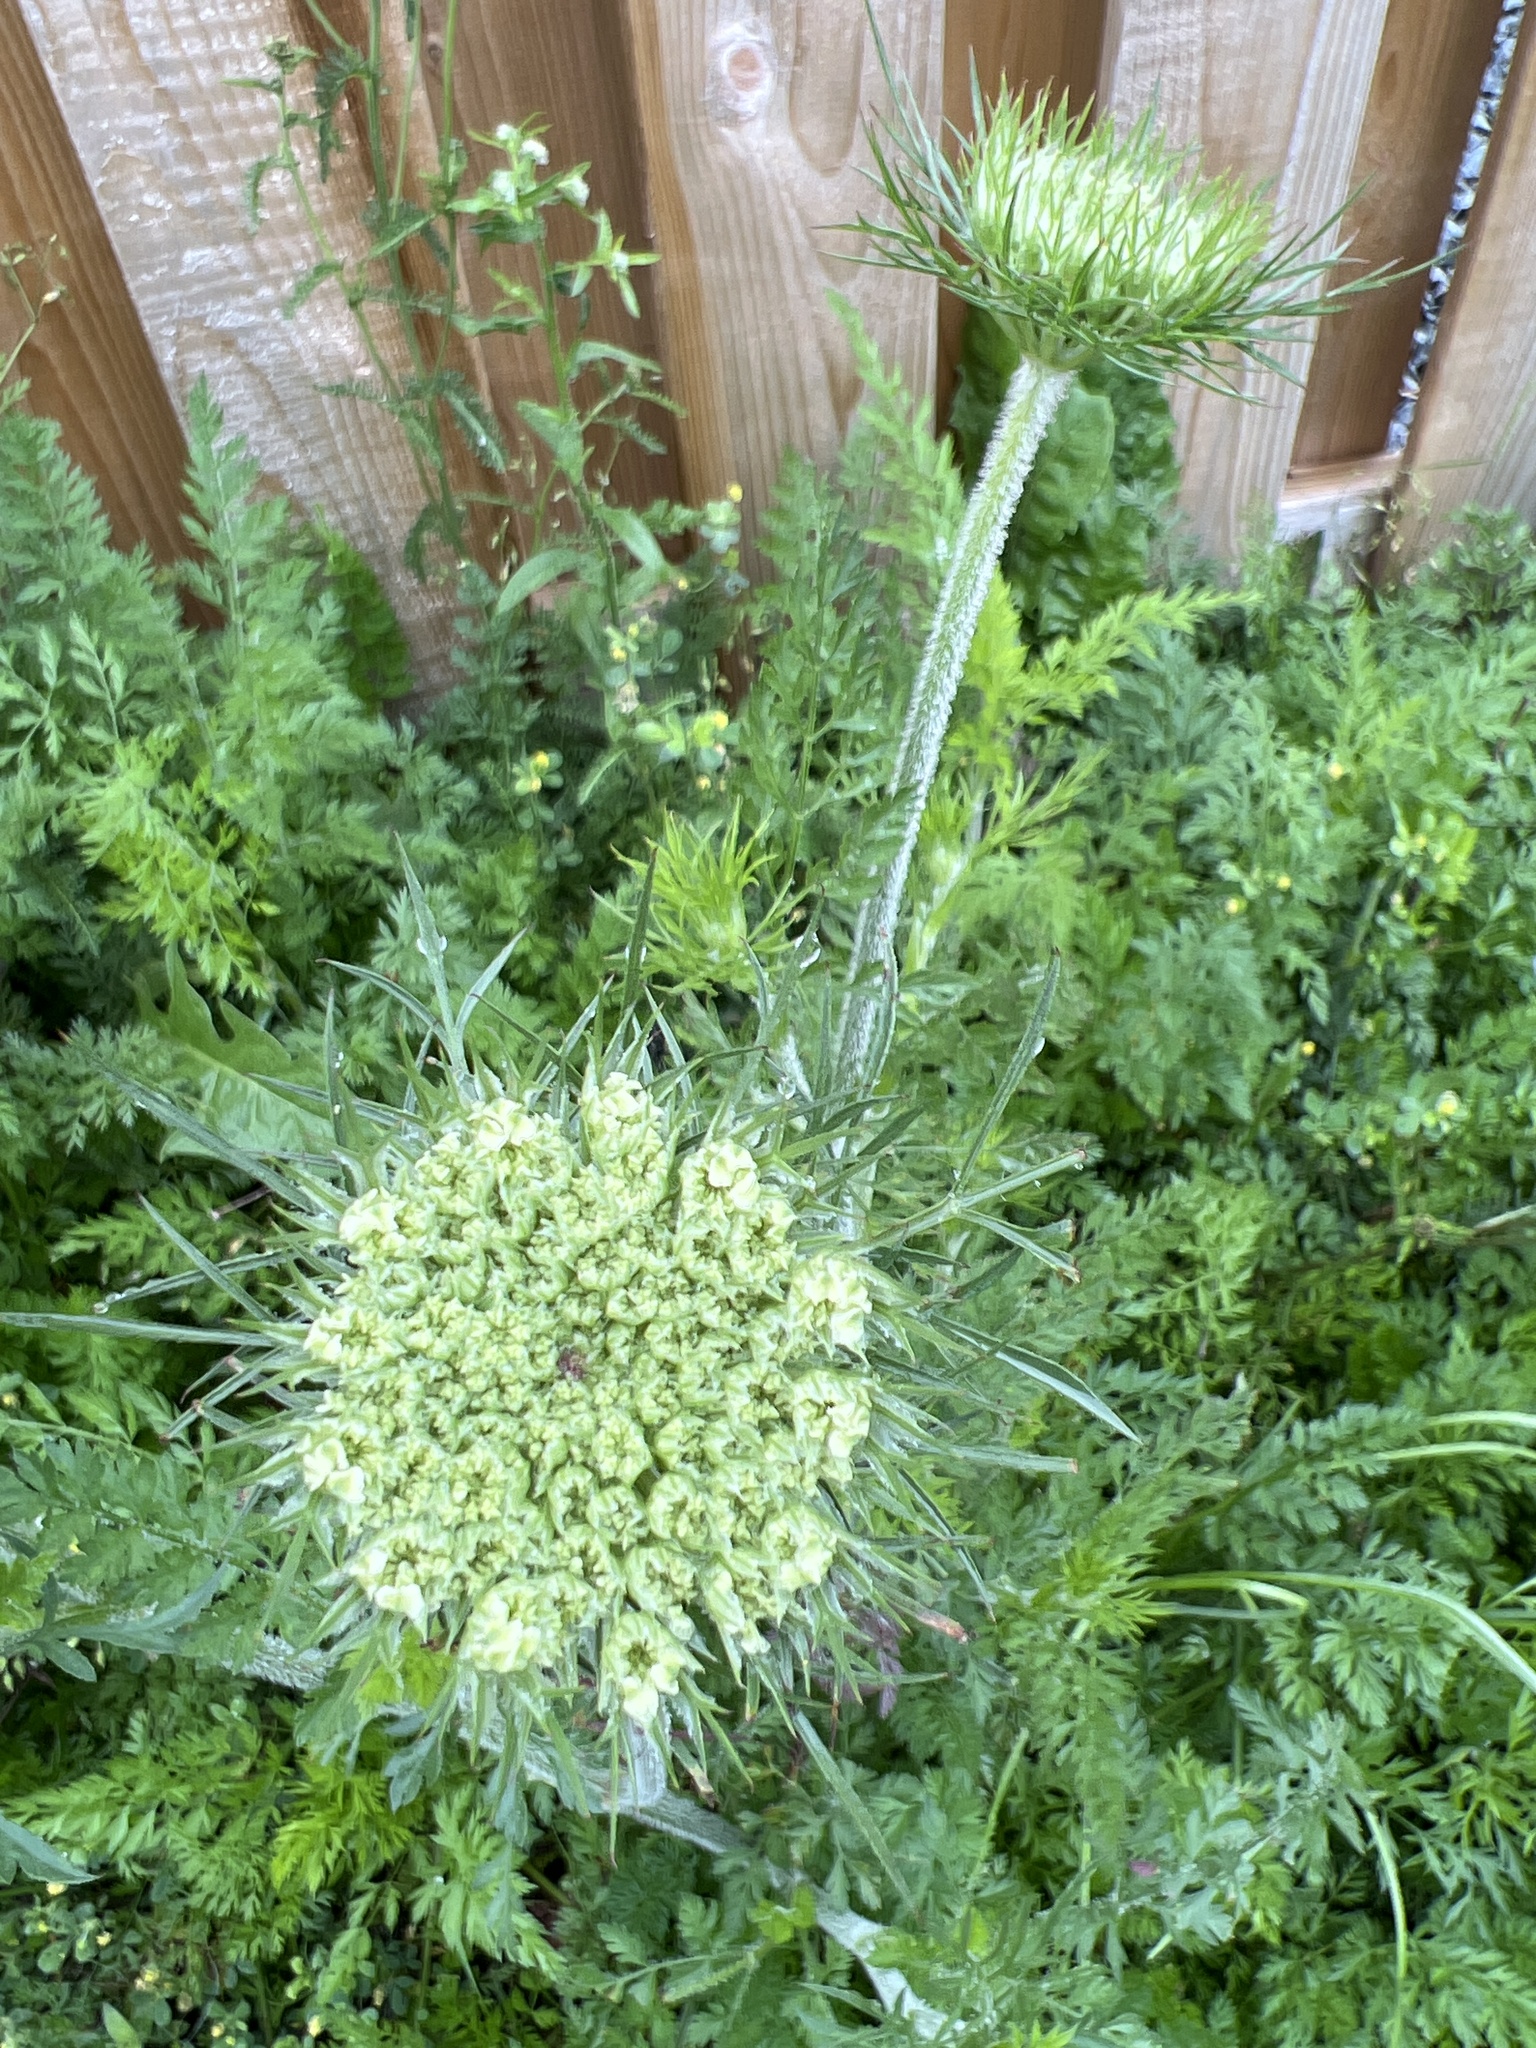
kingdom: Plantae
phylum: Tracheophyta
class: Magnoliopsida
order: Apiales
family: Apiaceae
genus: Daucus
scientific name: Daucus carota
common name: Wild carrot
